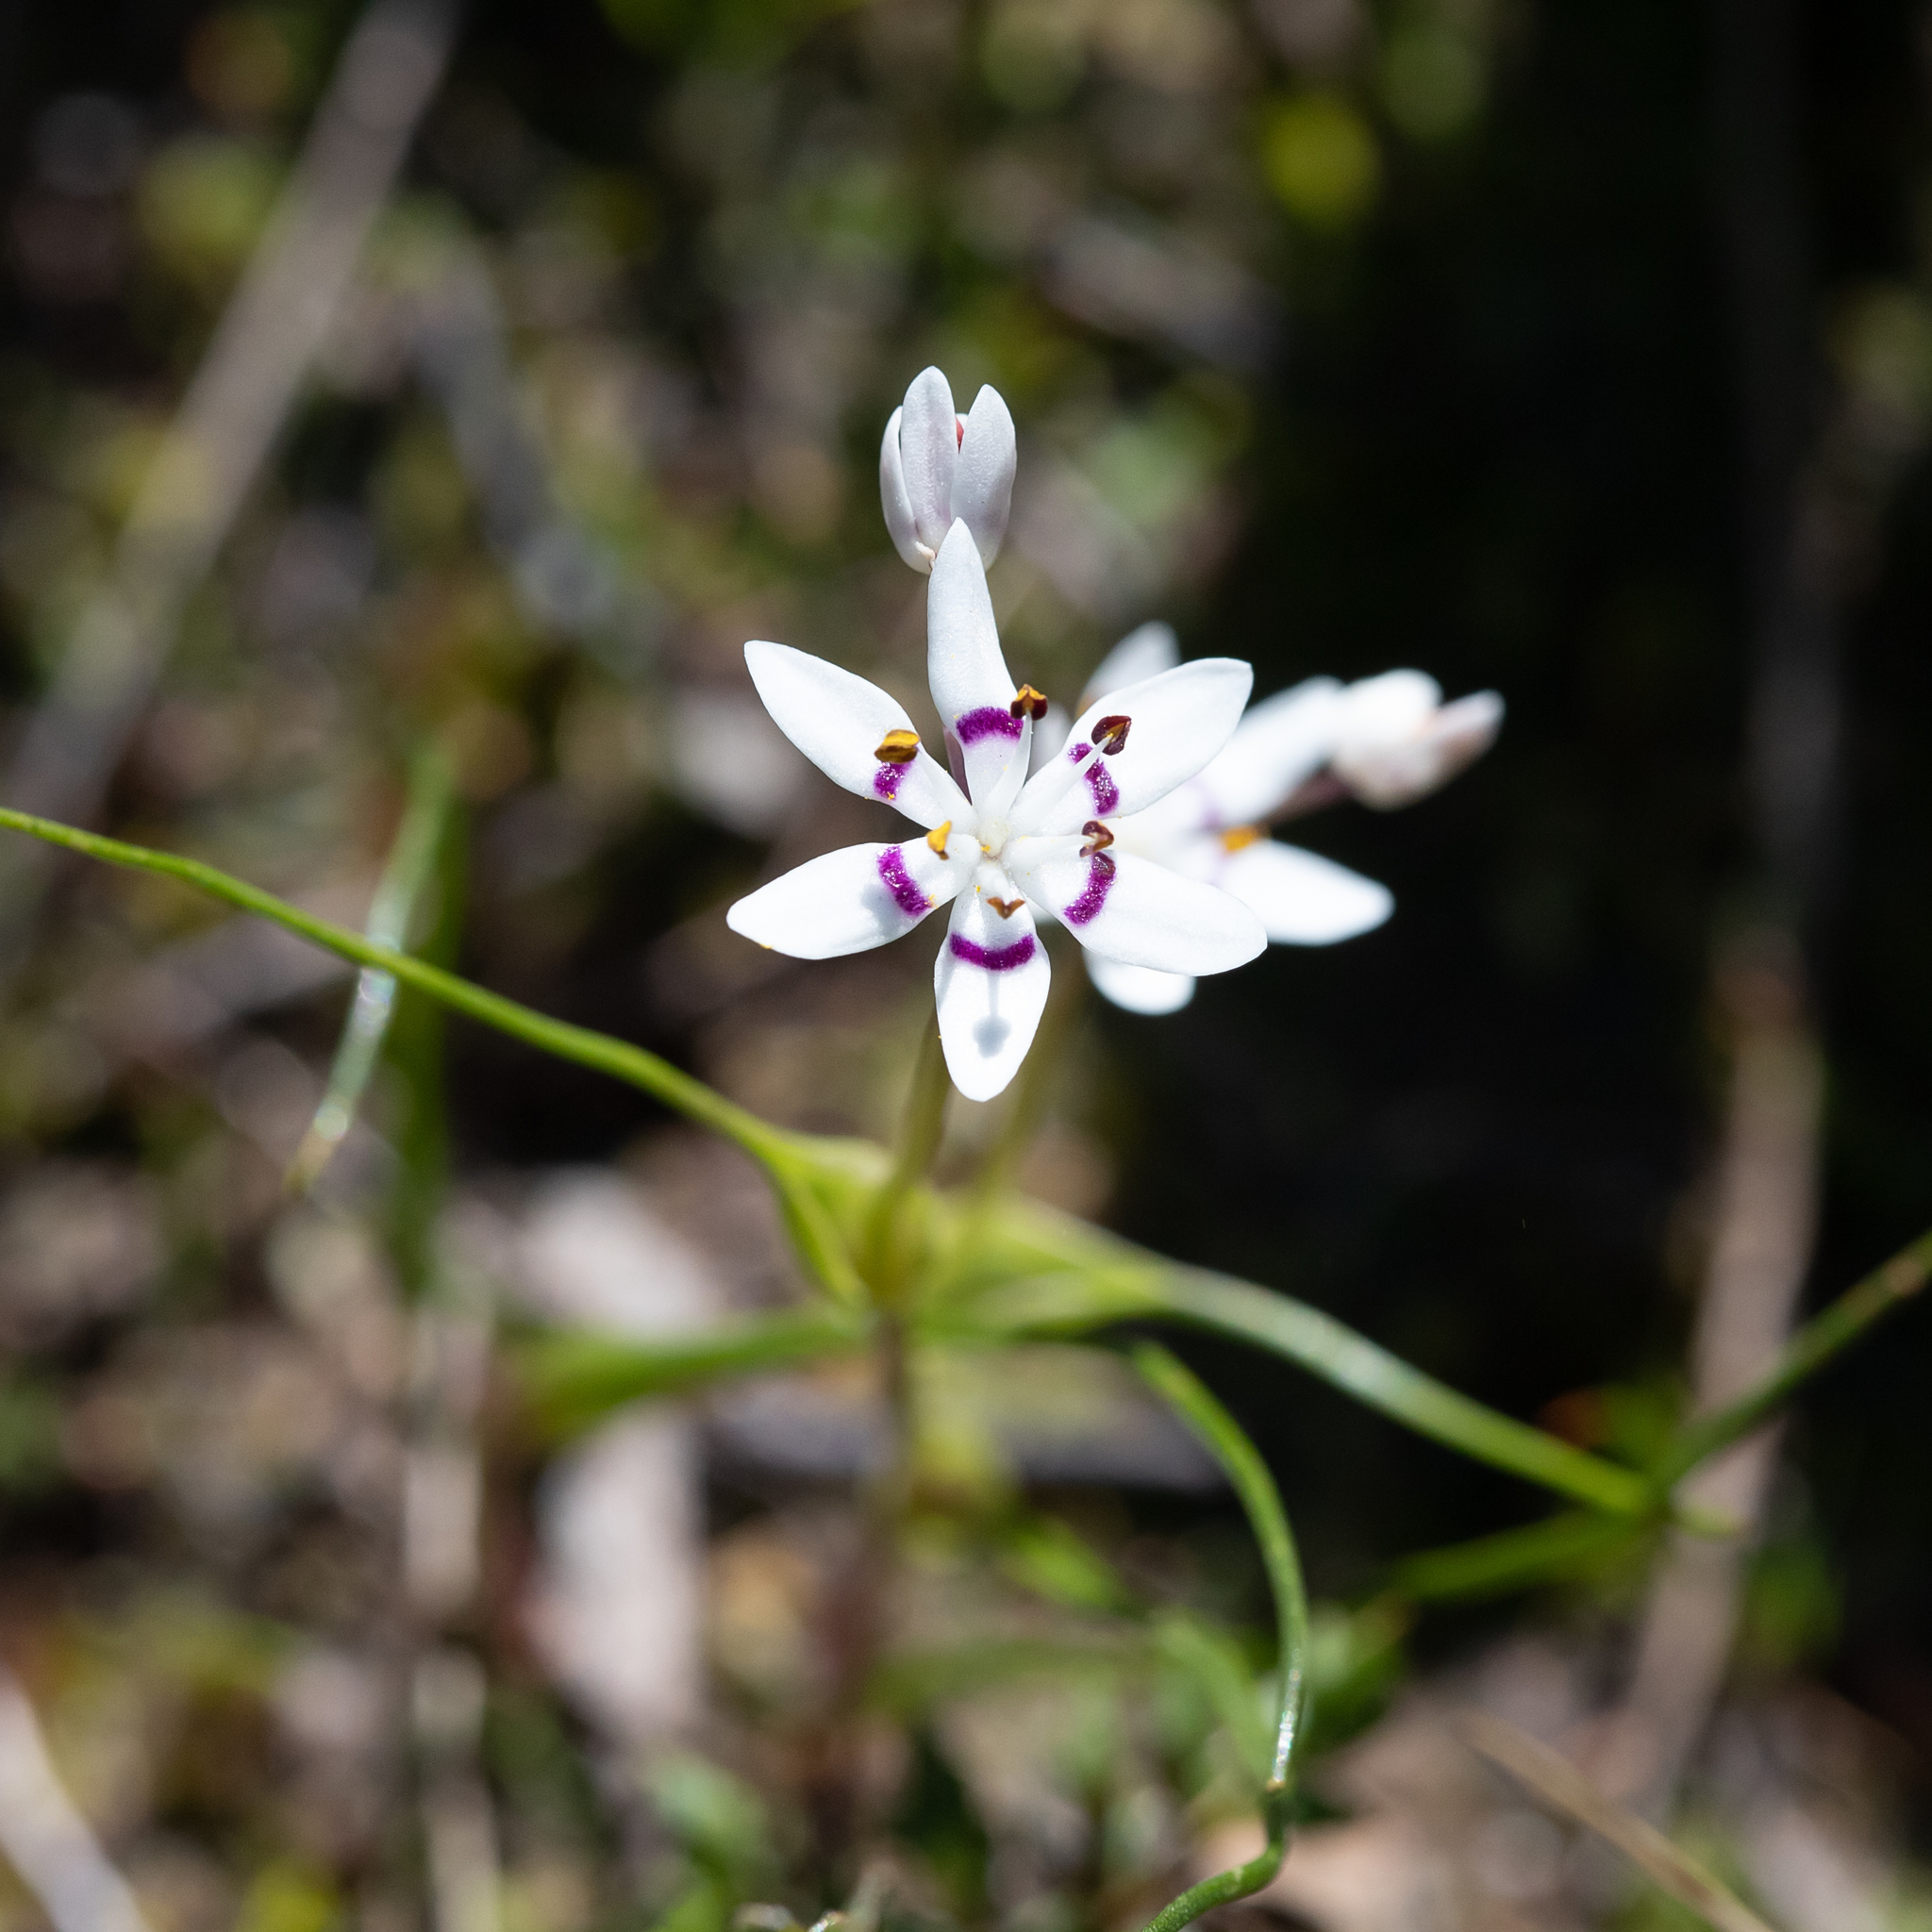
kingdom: Plantae
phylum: Tracheophyta
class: Liliopsida
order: Liliales
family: Colchicaceae
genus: Wurmbea
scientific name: Wurmbea dioica
